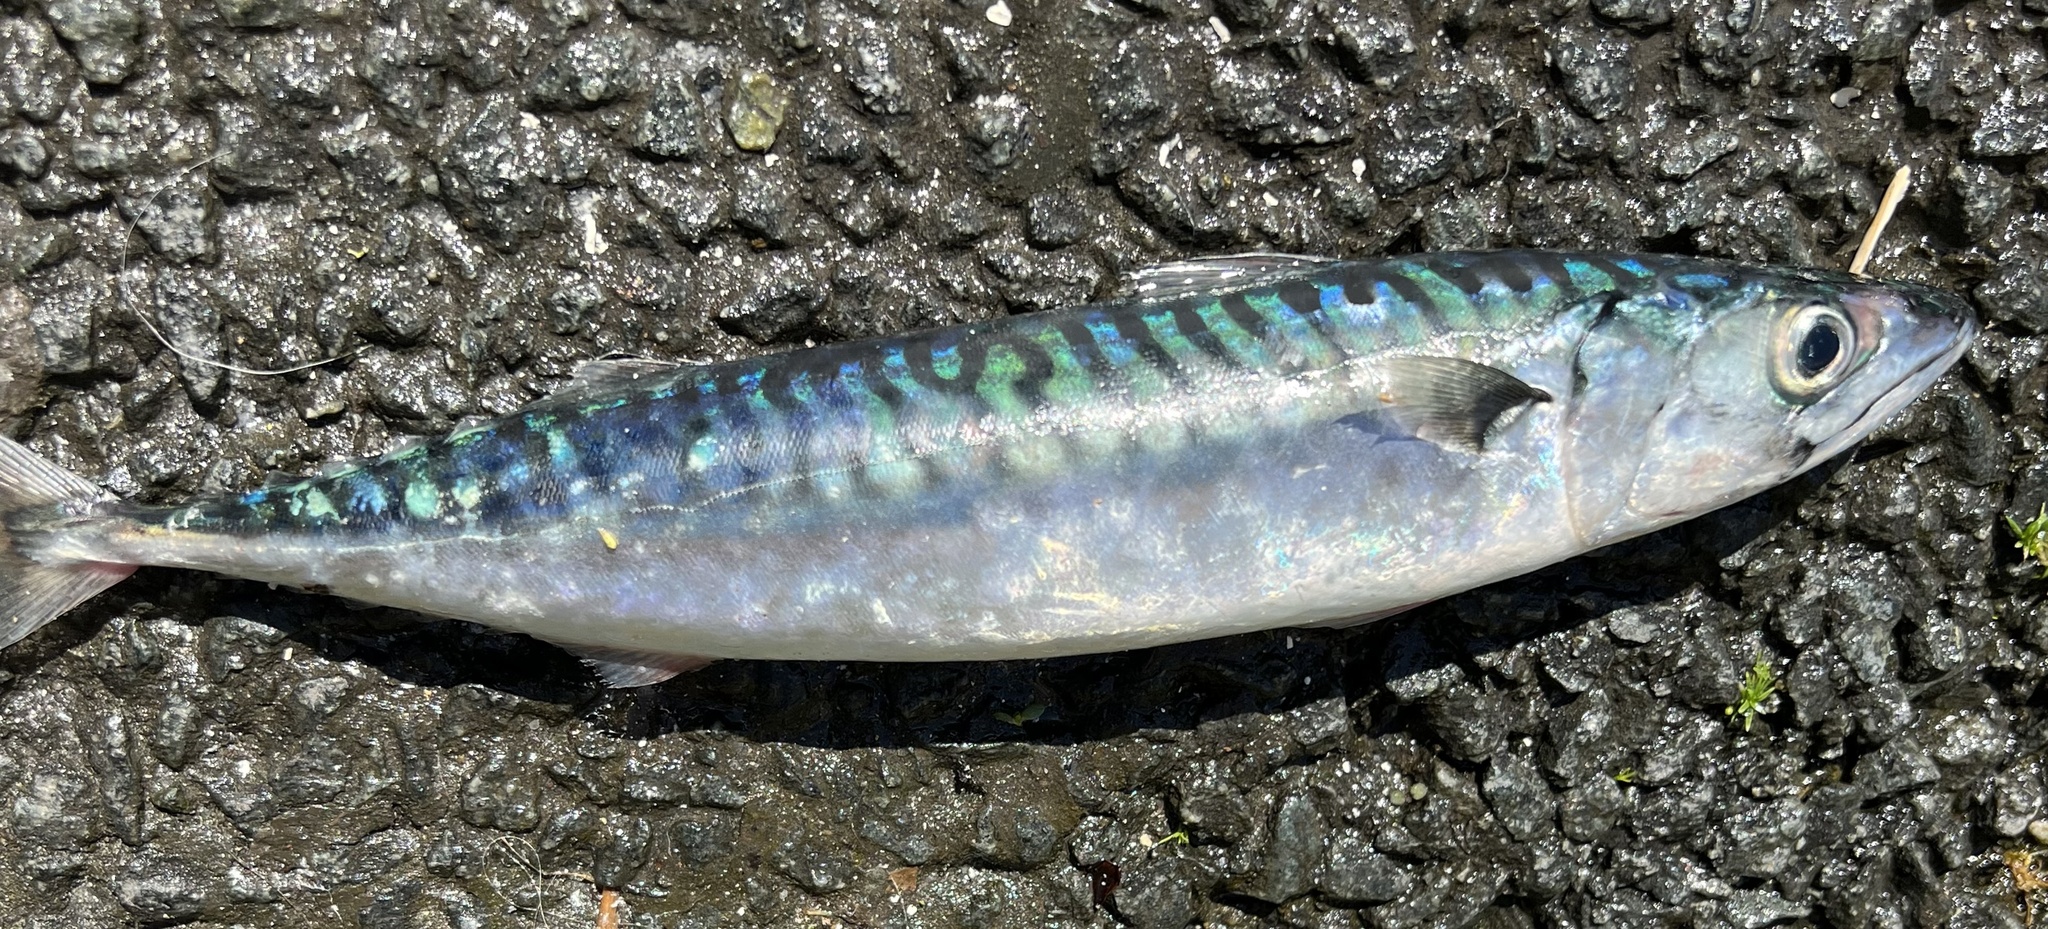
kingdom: Animalia
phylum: Chordata
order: Perciformes
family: Scombridae
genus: Scomber
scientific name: Scomber scombrus
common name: Mackerel
